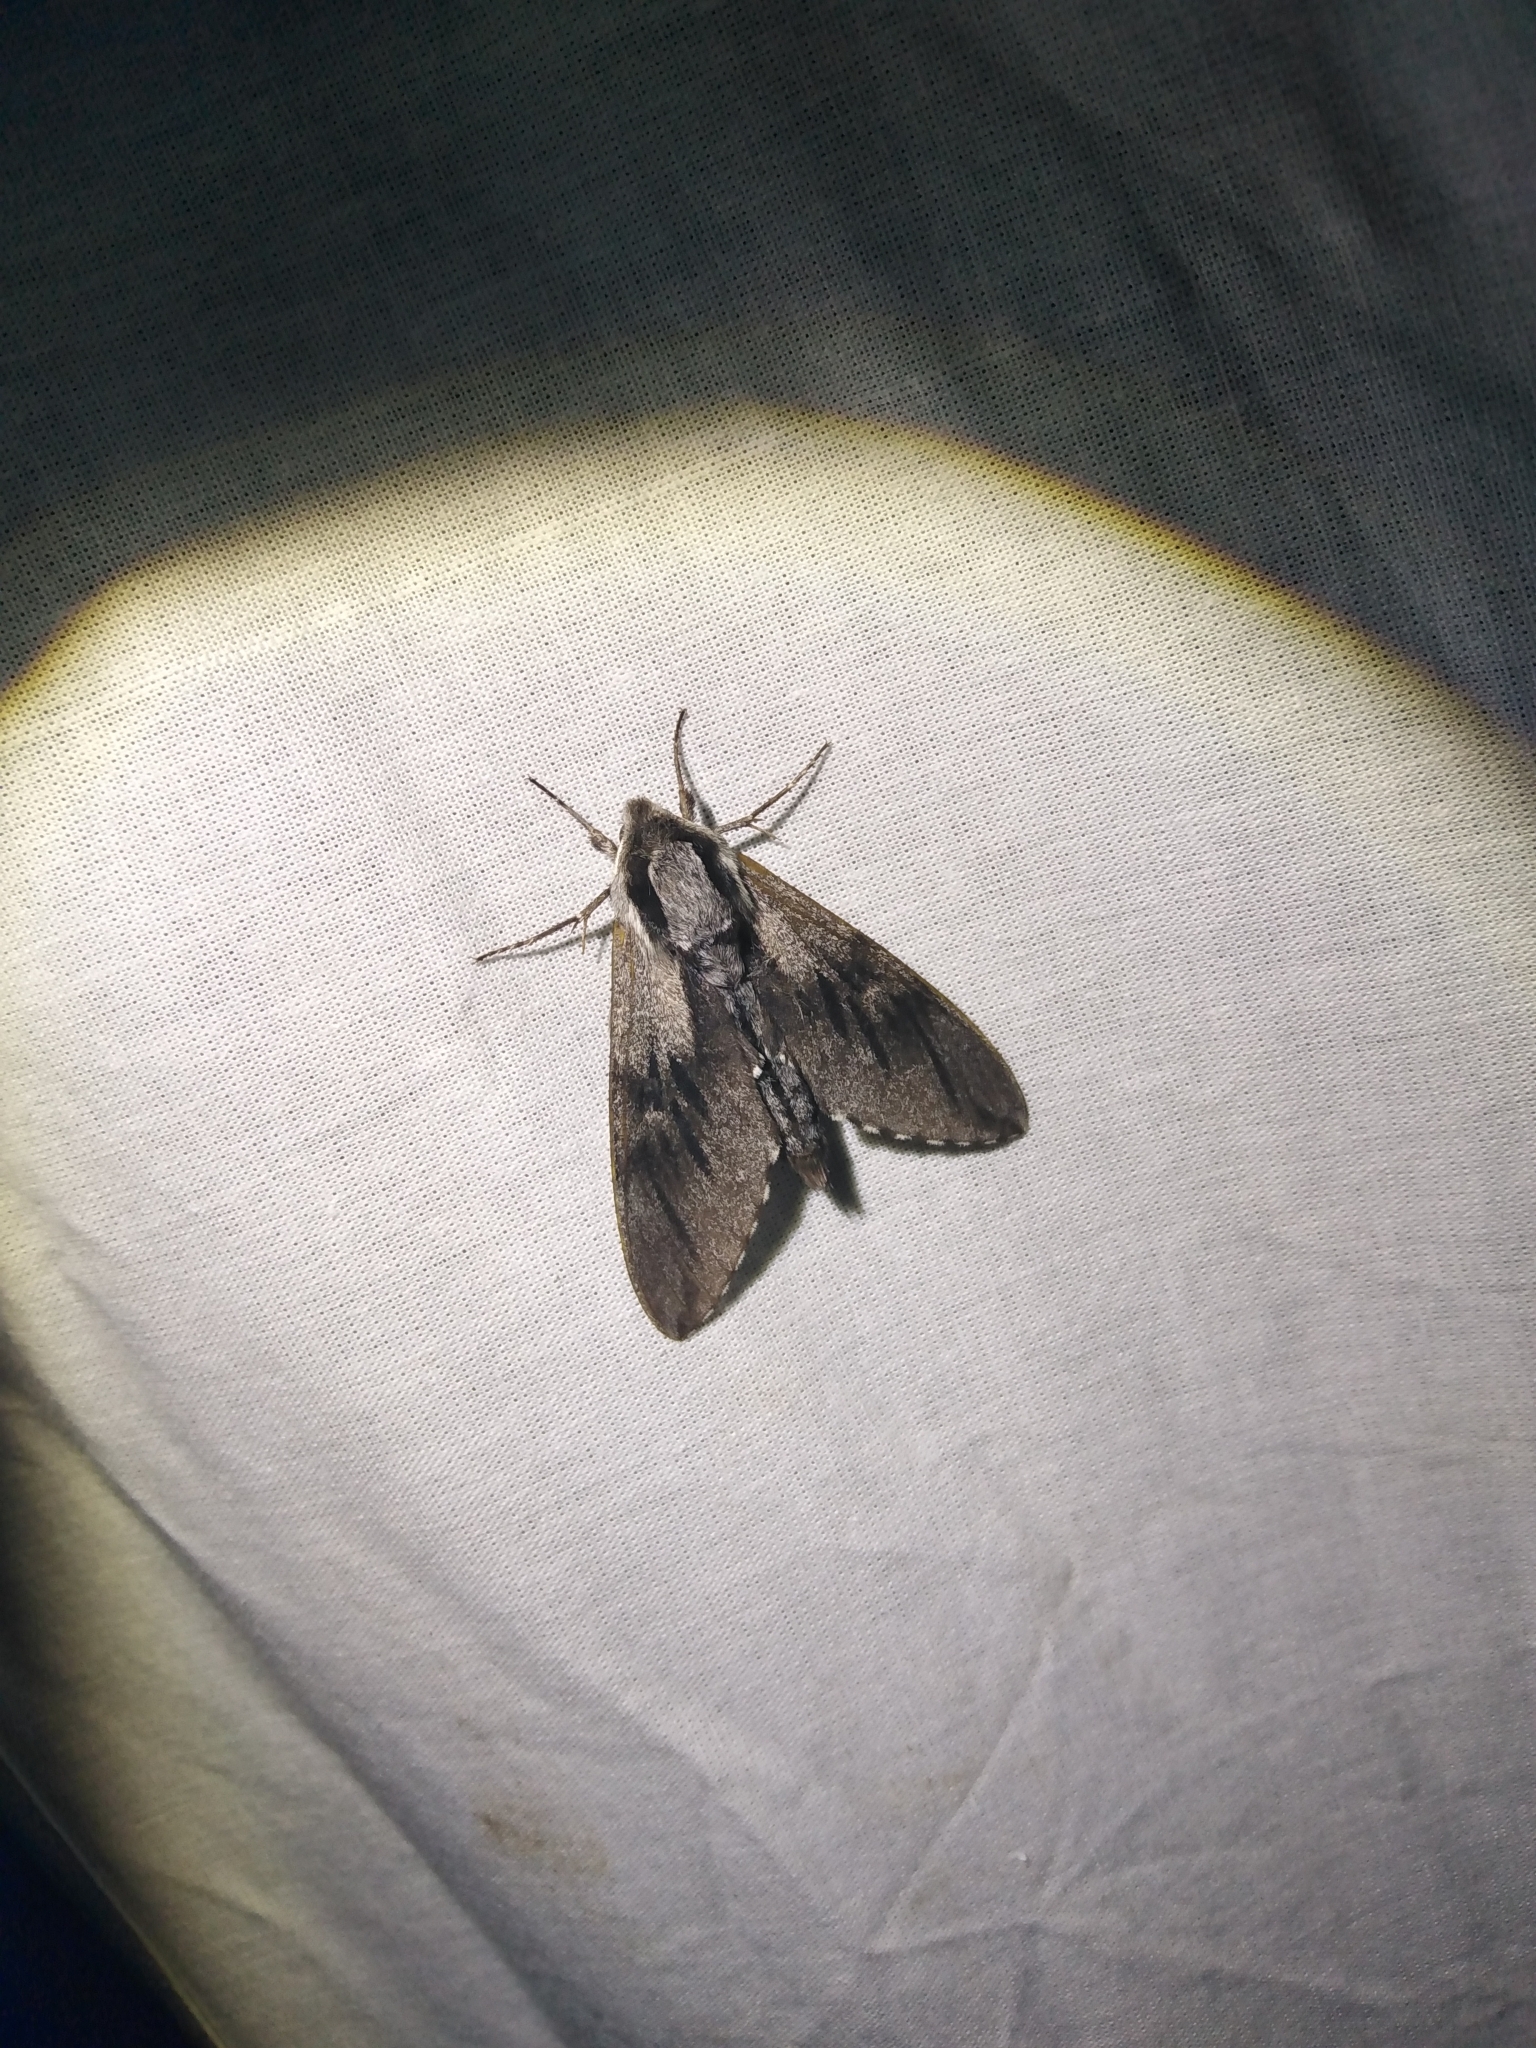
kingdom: Animalia
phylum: Arthropoda
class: Insecta
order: Lepidoptera
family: Sphingidae
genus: Sphinx
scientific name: Sphinx pinastri
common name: Pine hawk-moth
